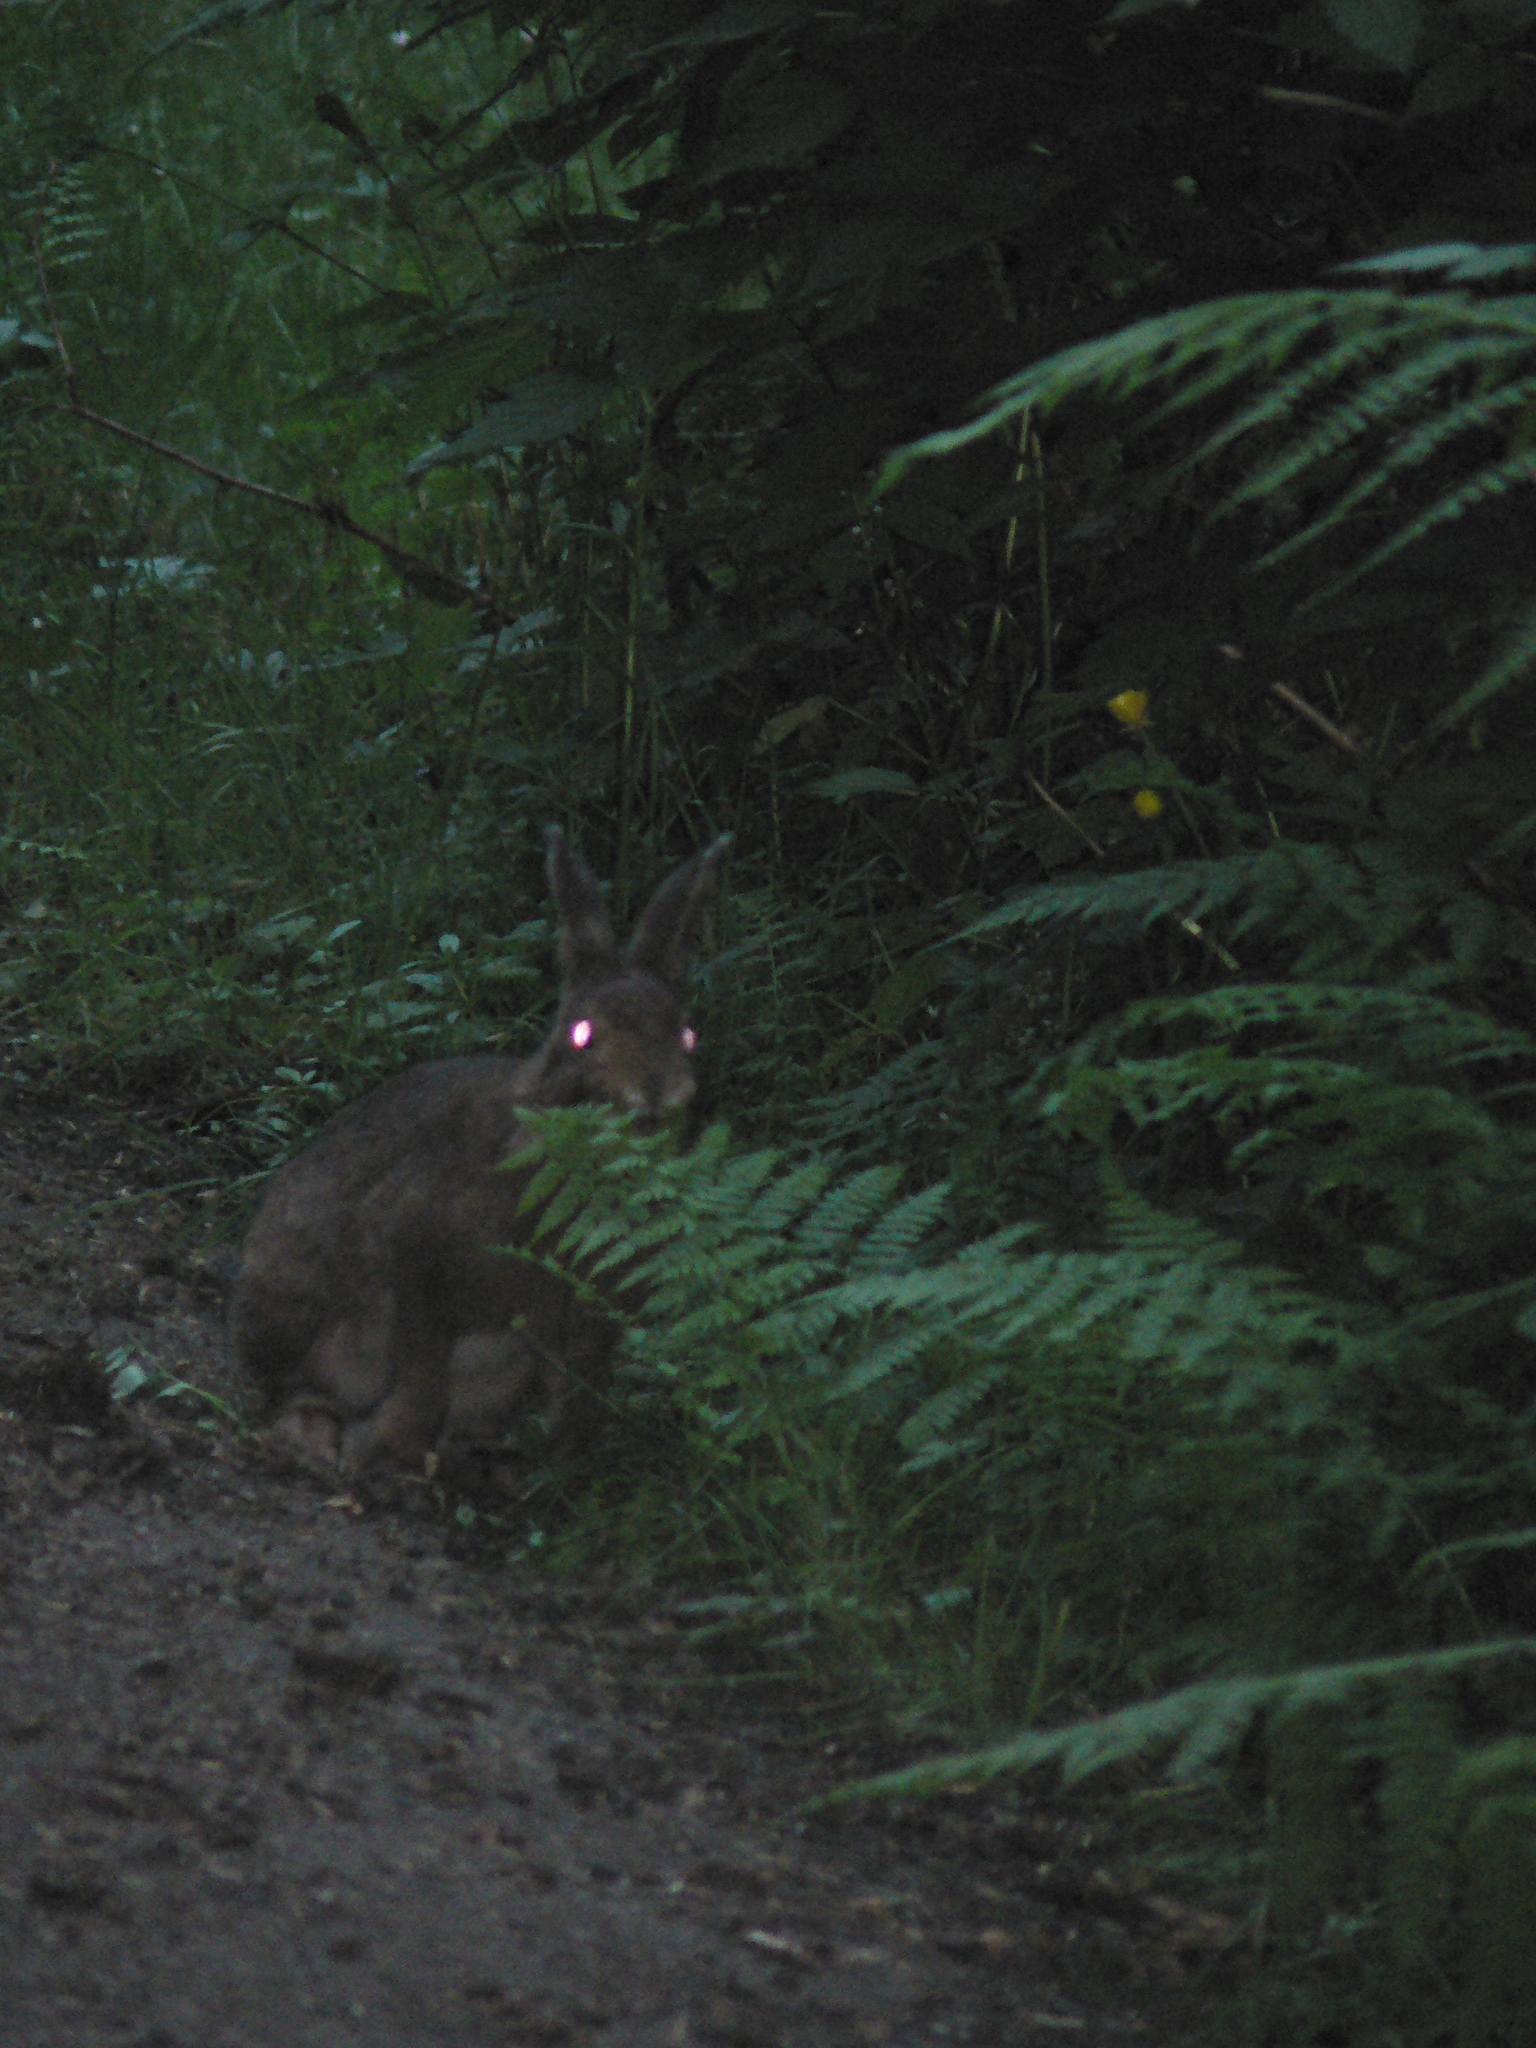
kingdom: Animalia
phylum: Chordata
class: Mammalia
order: Lagomorpha
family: Leporidae
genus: Lepus
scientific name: Lepus americanus
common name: Snowshoe hare
